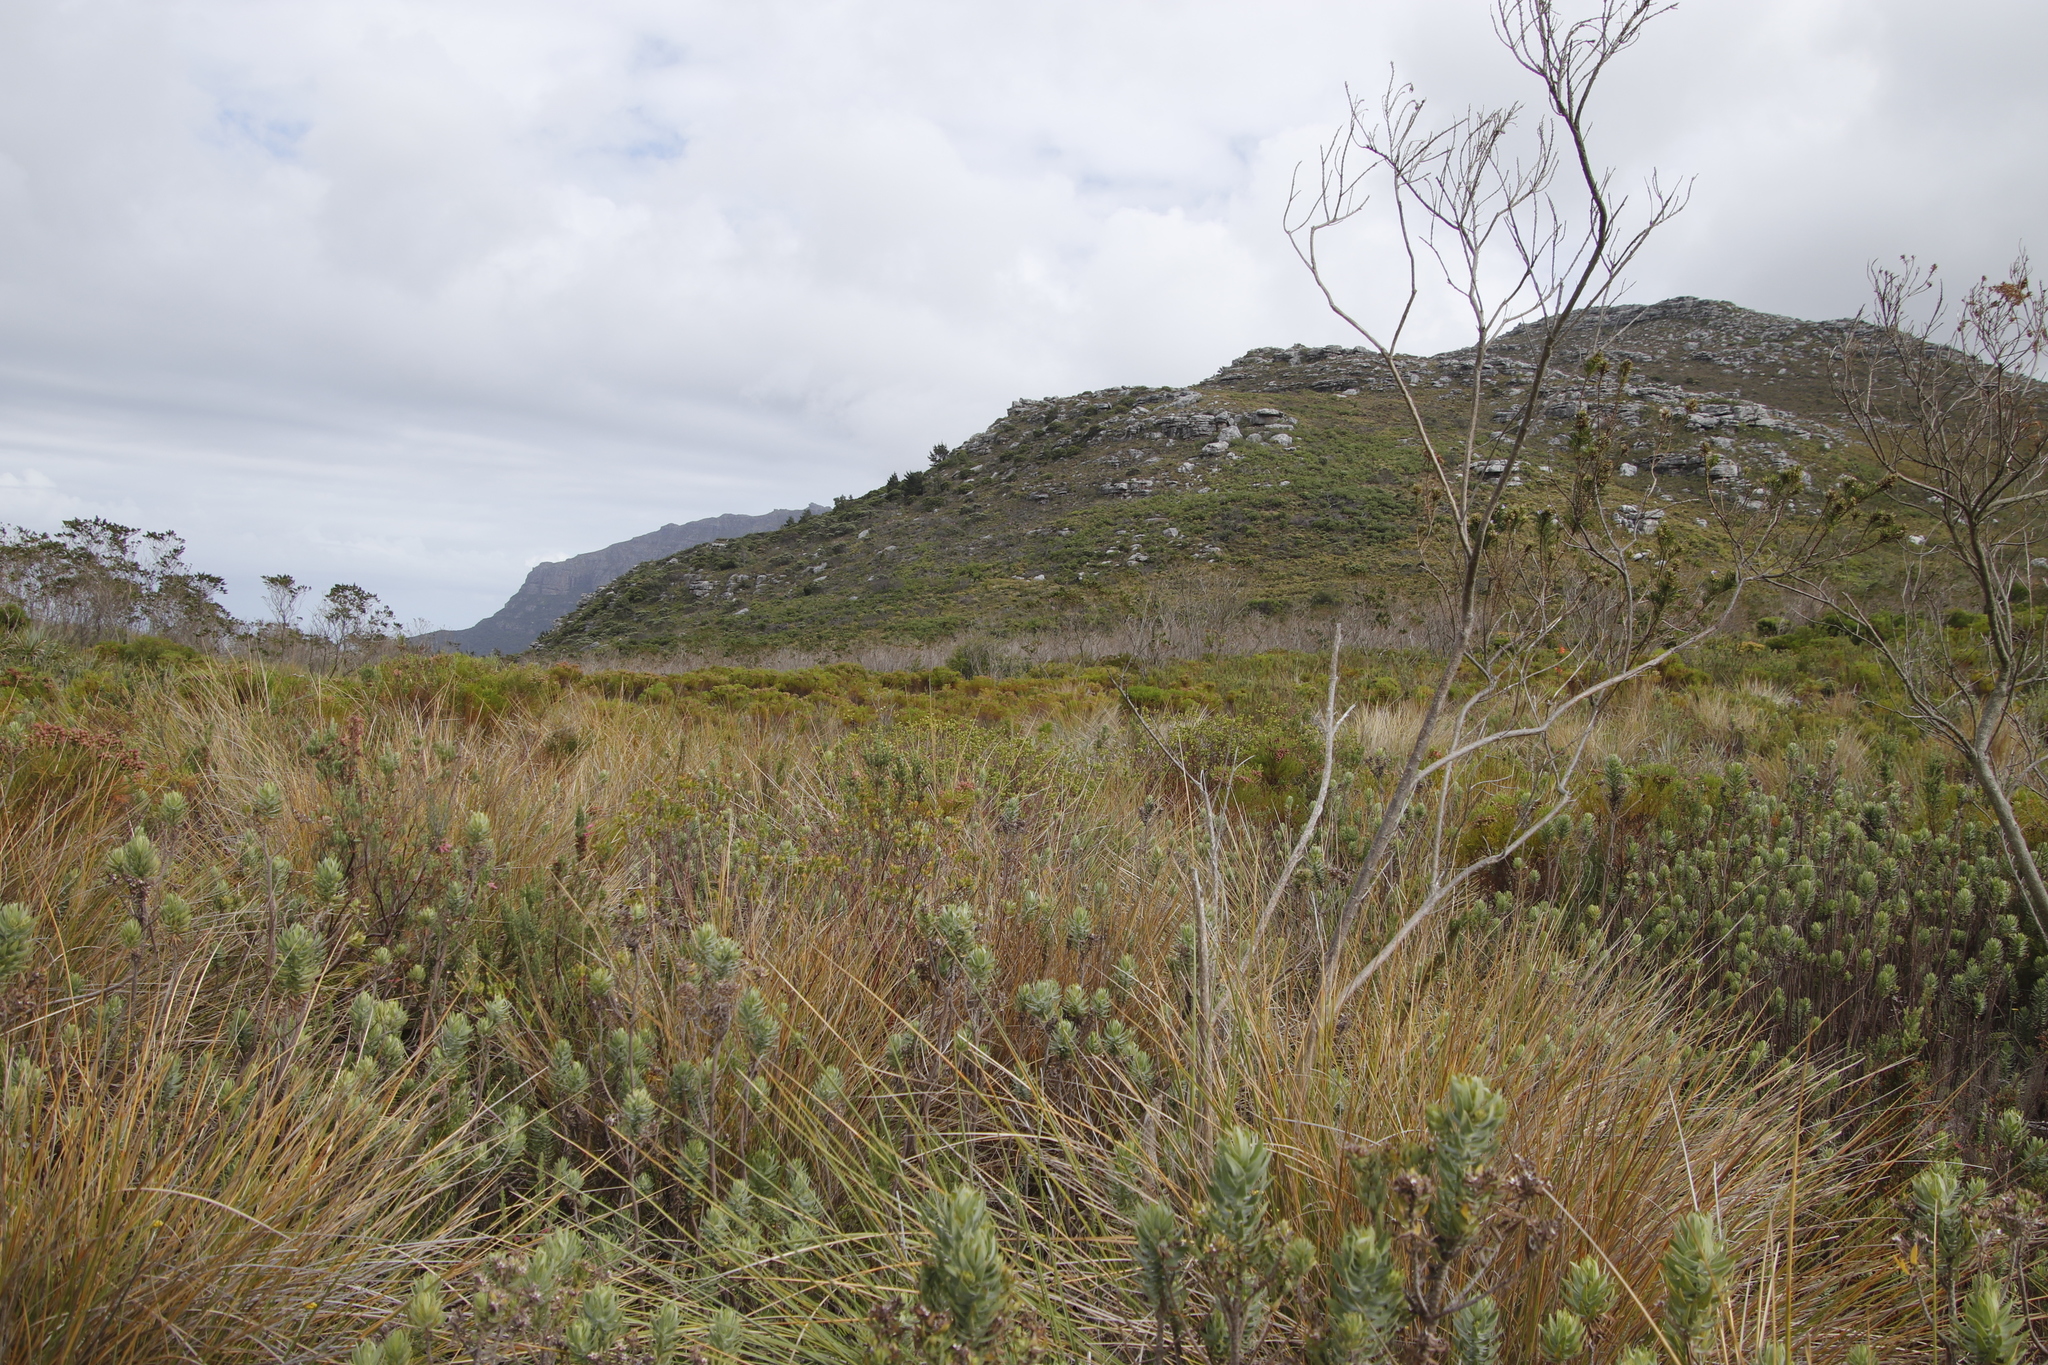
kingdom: Plantae
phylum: Tracheophyta
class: Magnoliopsida
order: Asterales
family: Asteraceae
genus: Osmitopsis
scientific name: Osmitopsis asteriscoides
